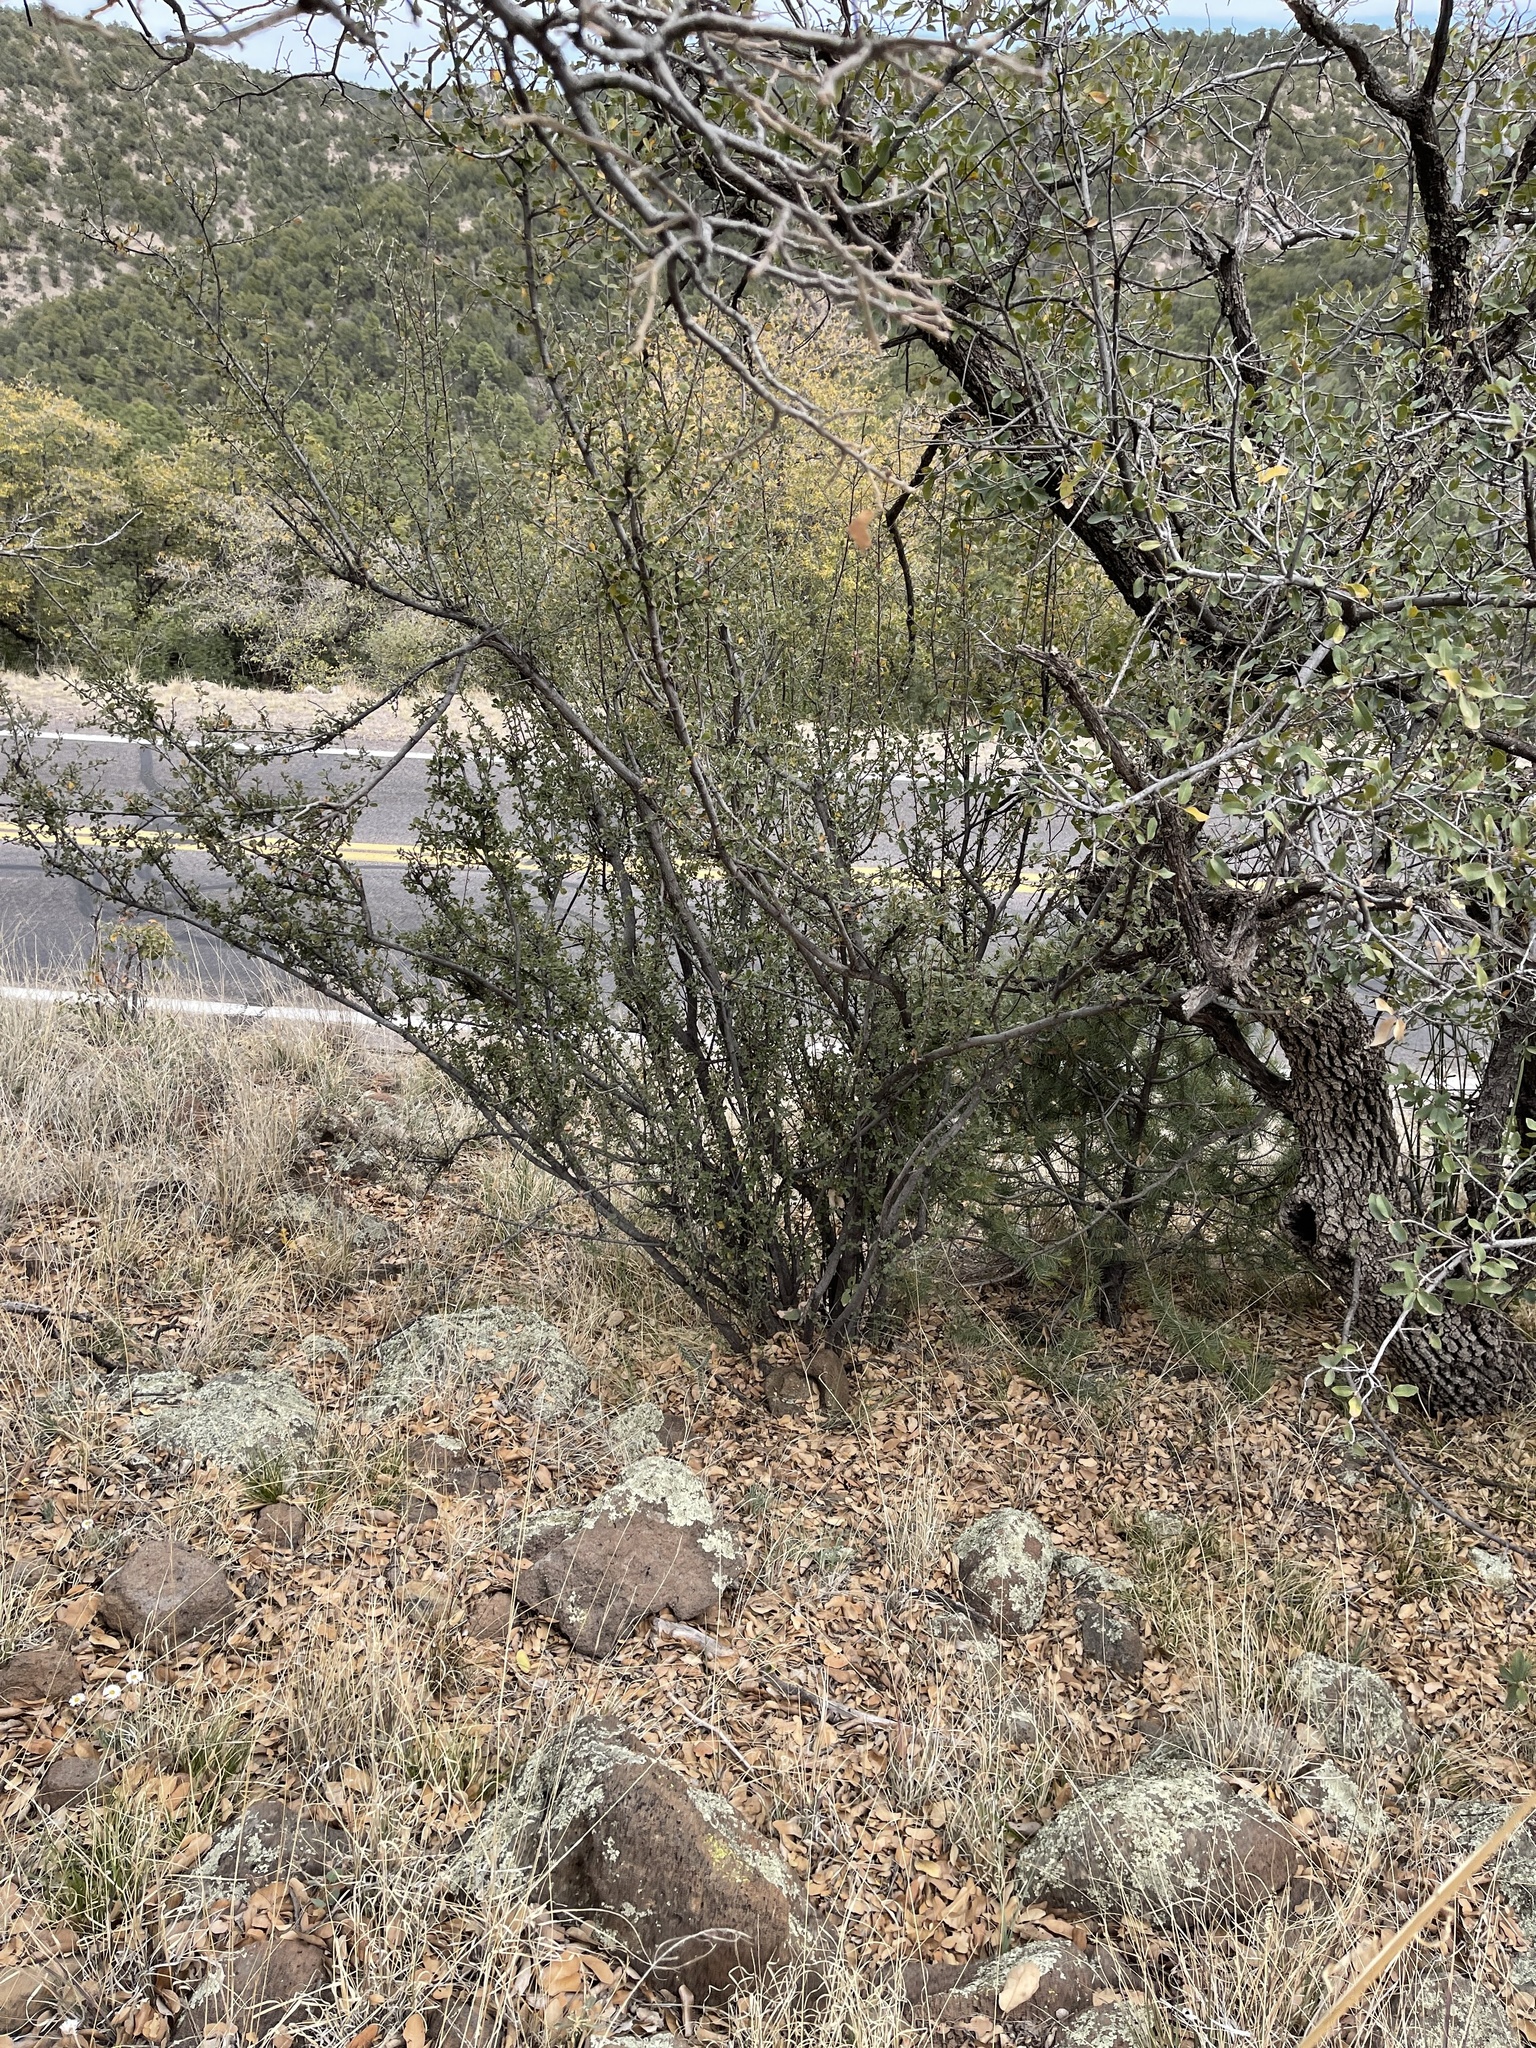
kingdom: Plantae
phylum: Tracheophyta
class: Magnoliopsida
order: Rosales
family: Rosaceae
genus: Cercocarpus
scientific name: Cercocarpus montanus
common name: Alder-leaf cercocarpus
